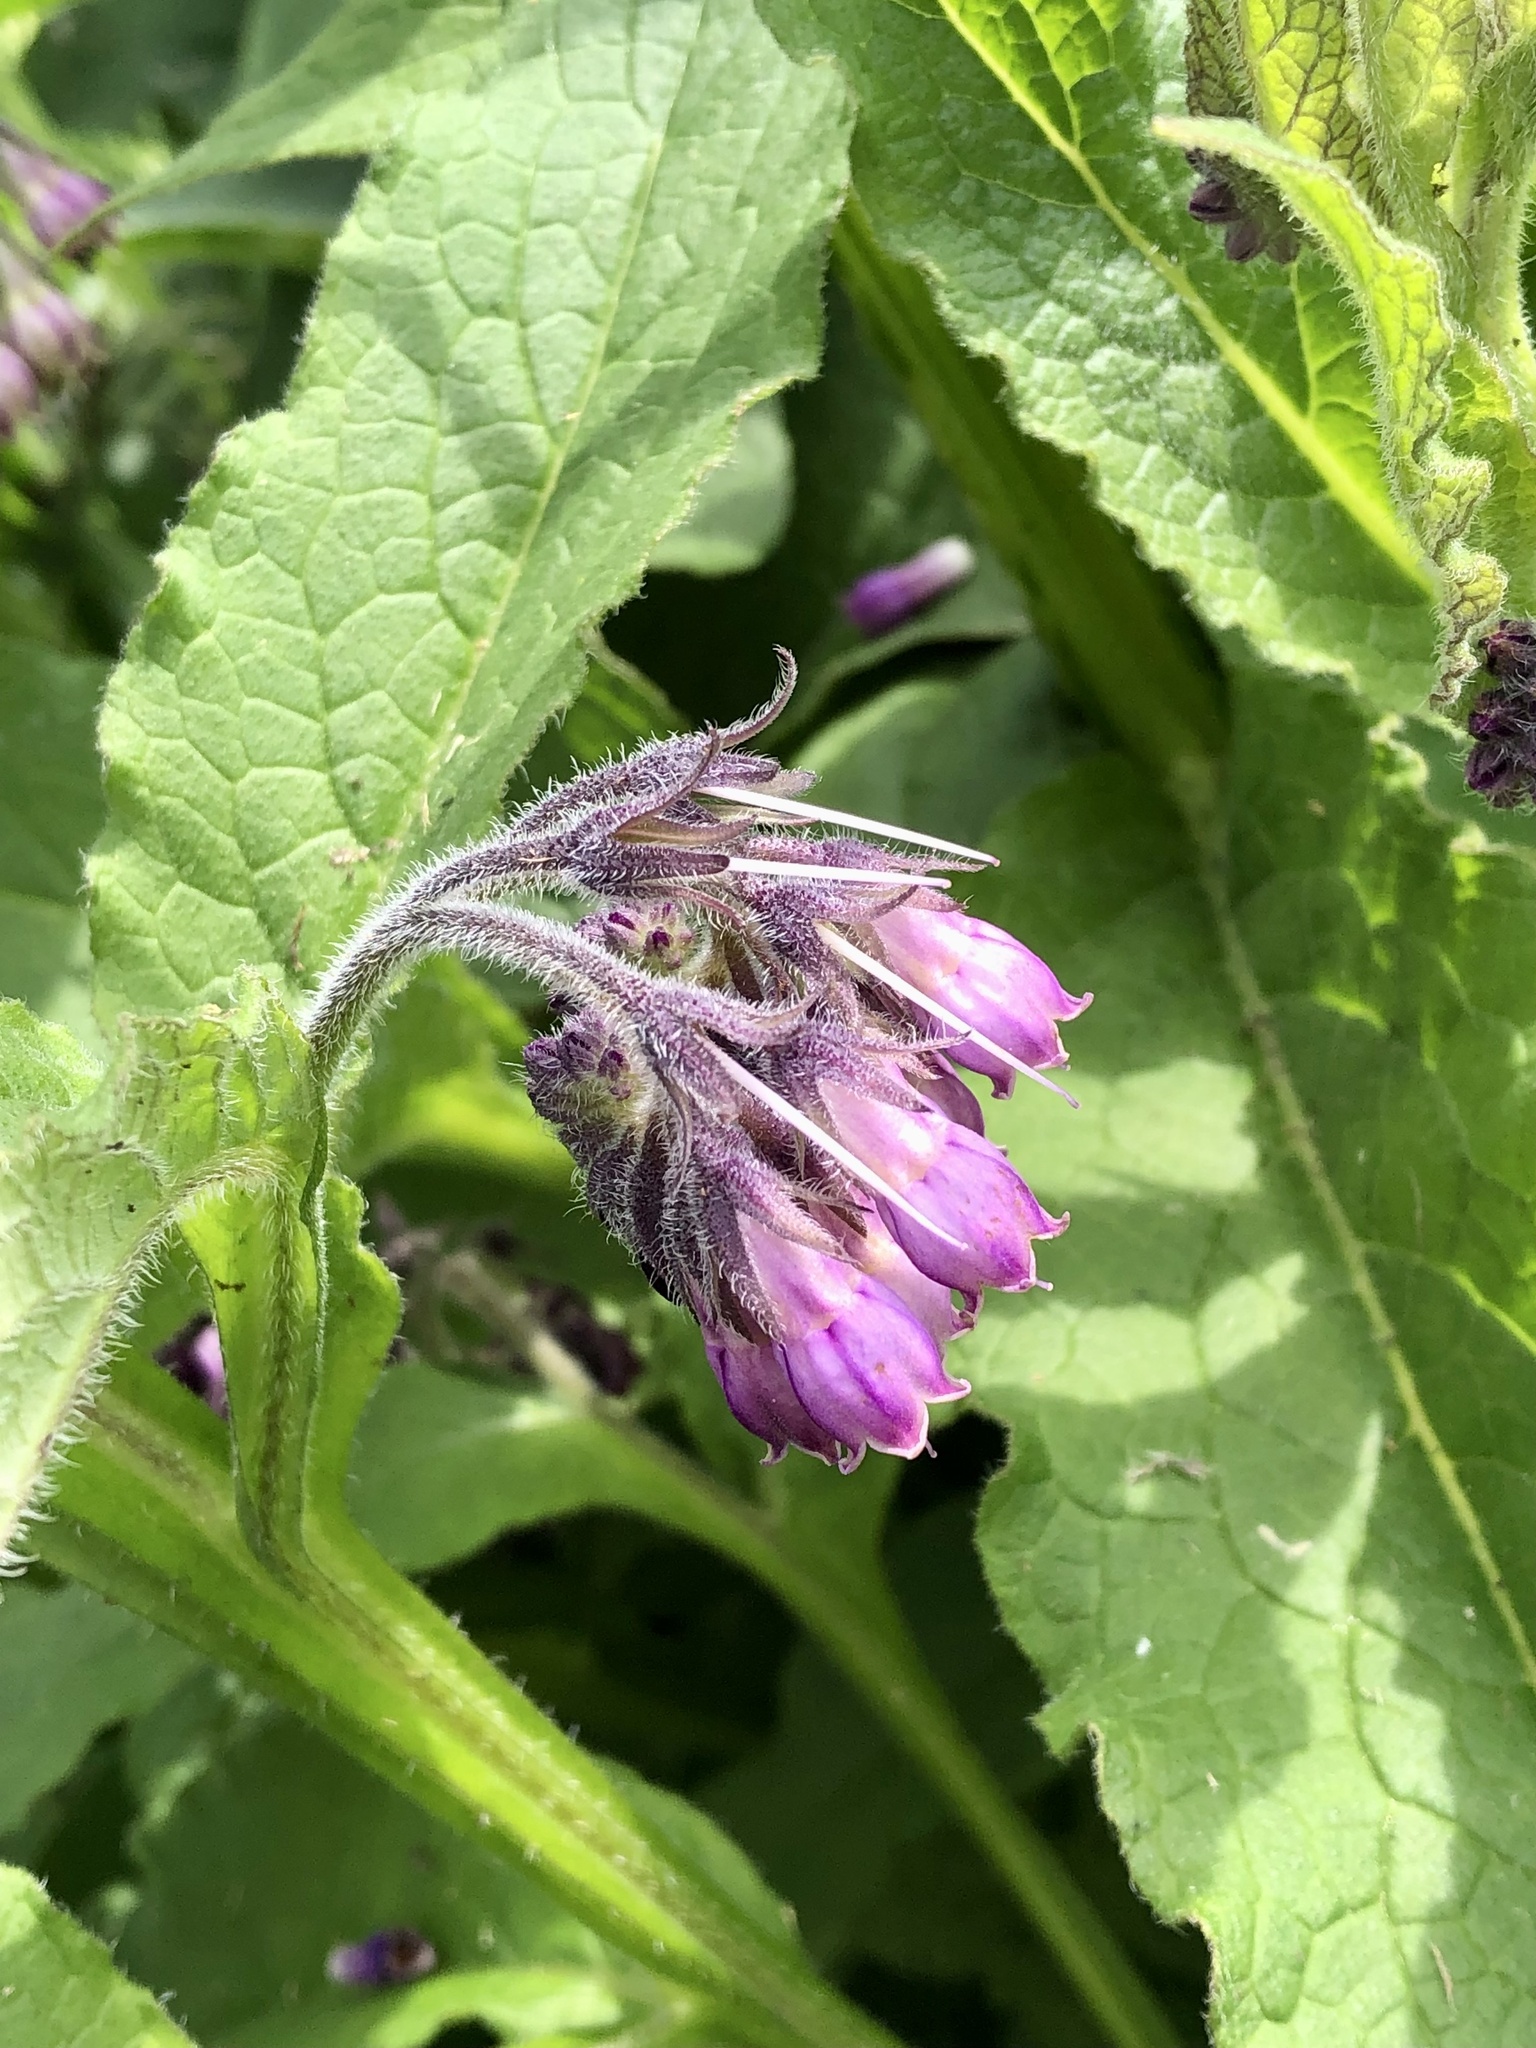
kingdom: Plantae
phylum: Tracheophyta
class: Magnoliopsida
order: Boraginales
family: Boraginaceae
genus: Symphytum
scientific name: Symphytum officinale
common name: Common comfrey
